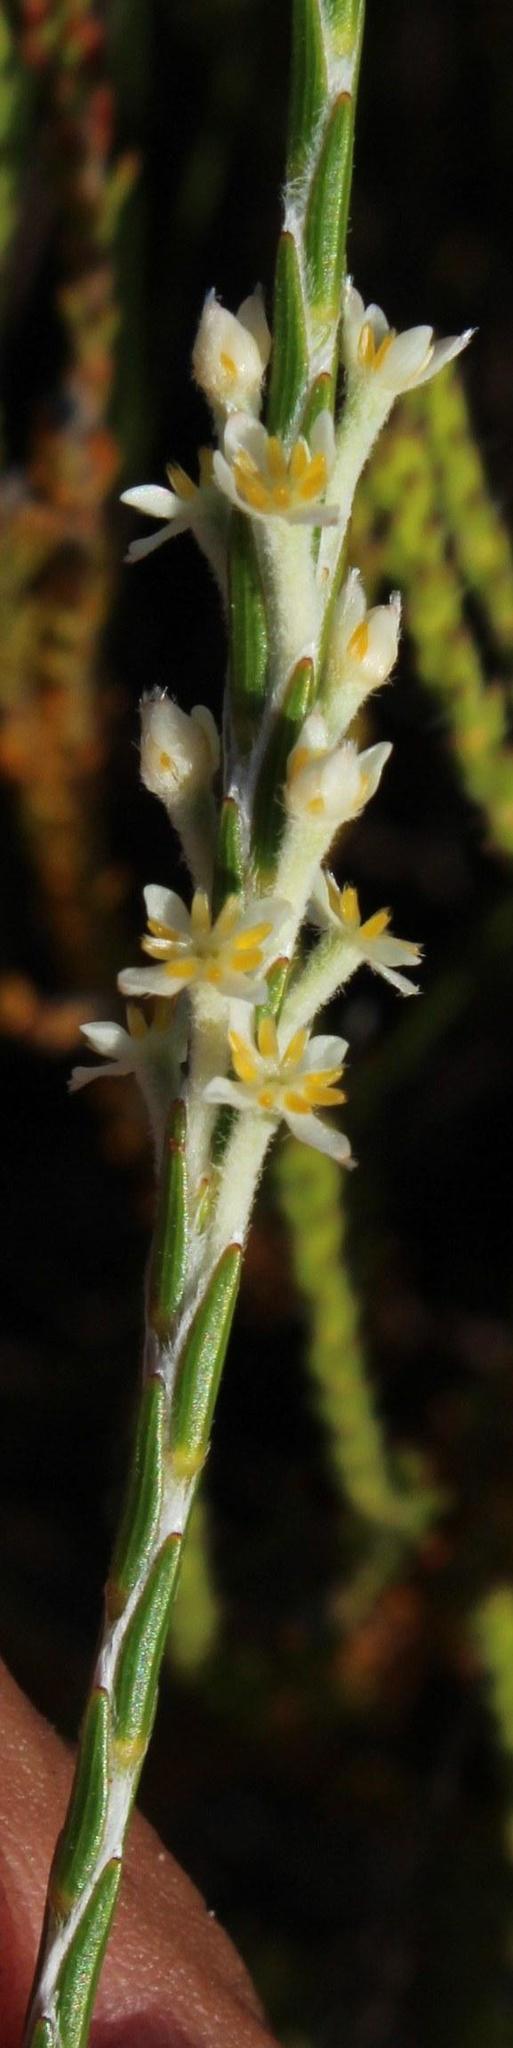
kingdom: Plantae
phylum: Tracheophyta
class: Magnoliopsida
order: Malvales
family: Thymelaeaceae
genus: Struthiola
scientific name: Struthiola ciliata
